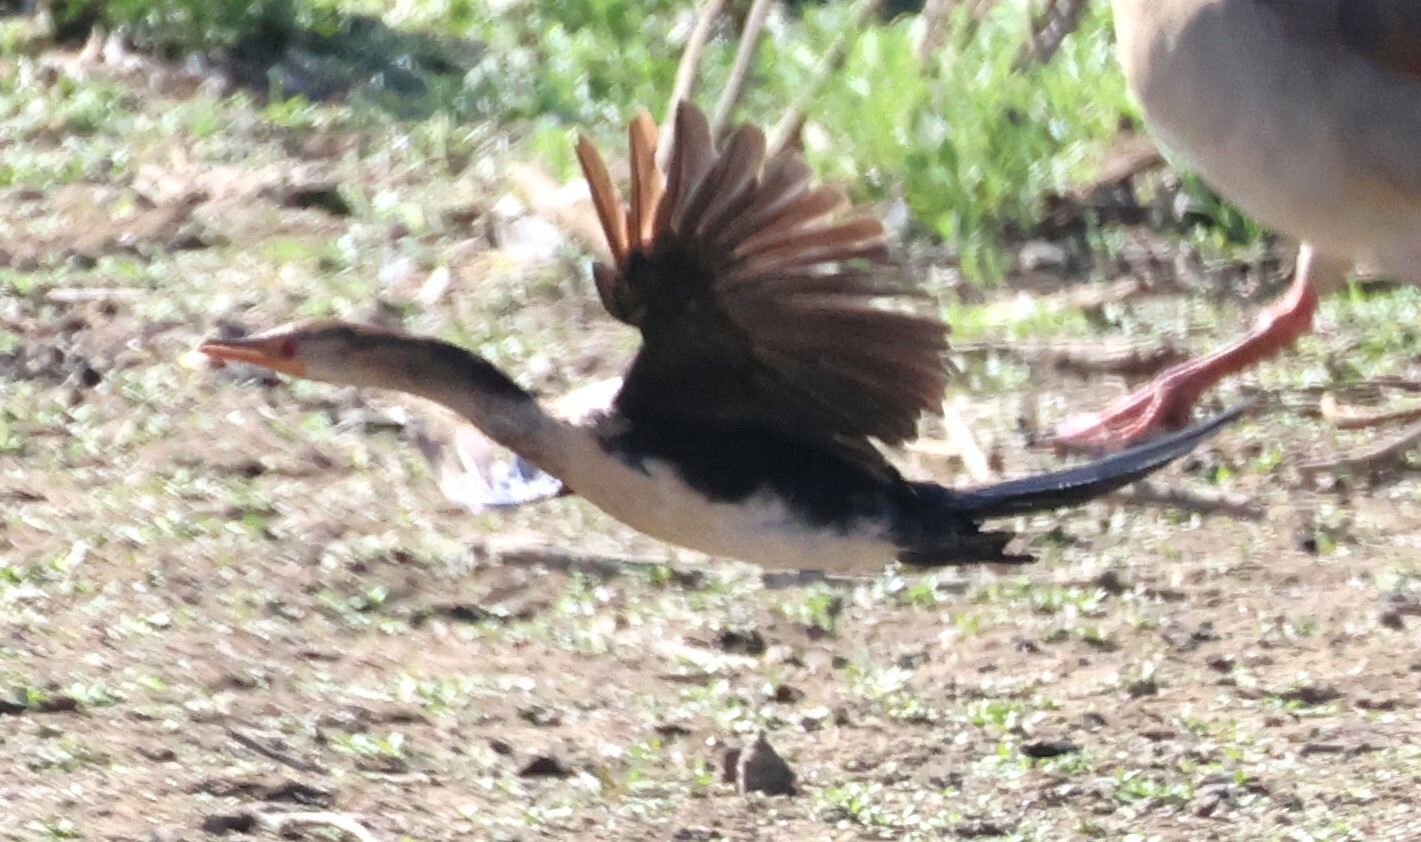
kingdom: Animalia
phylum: Chordata
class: Aves
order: Suliformes
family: Phalacrocoracidae
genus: Microcarbo
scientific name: Microcarbo africanus
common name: Long-tailed cormorant
